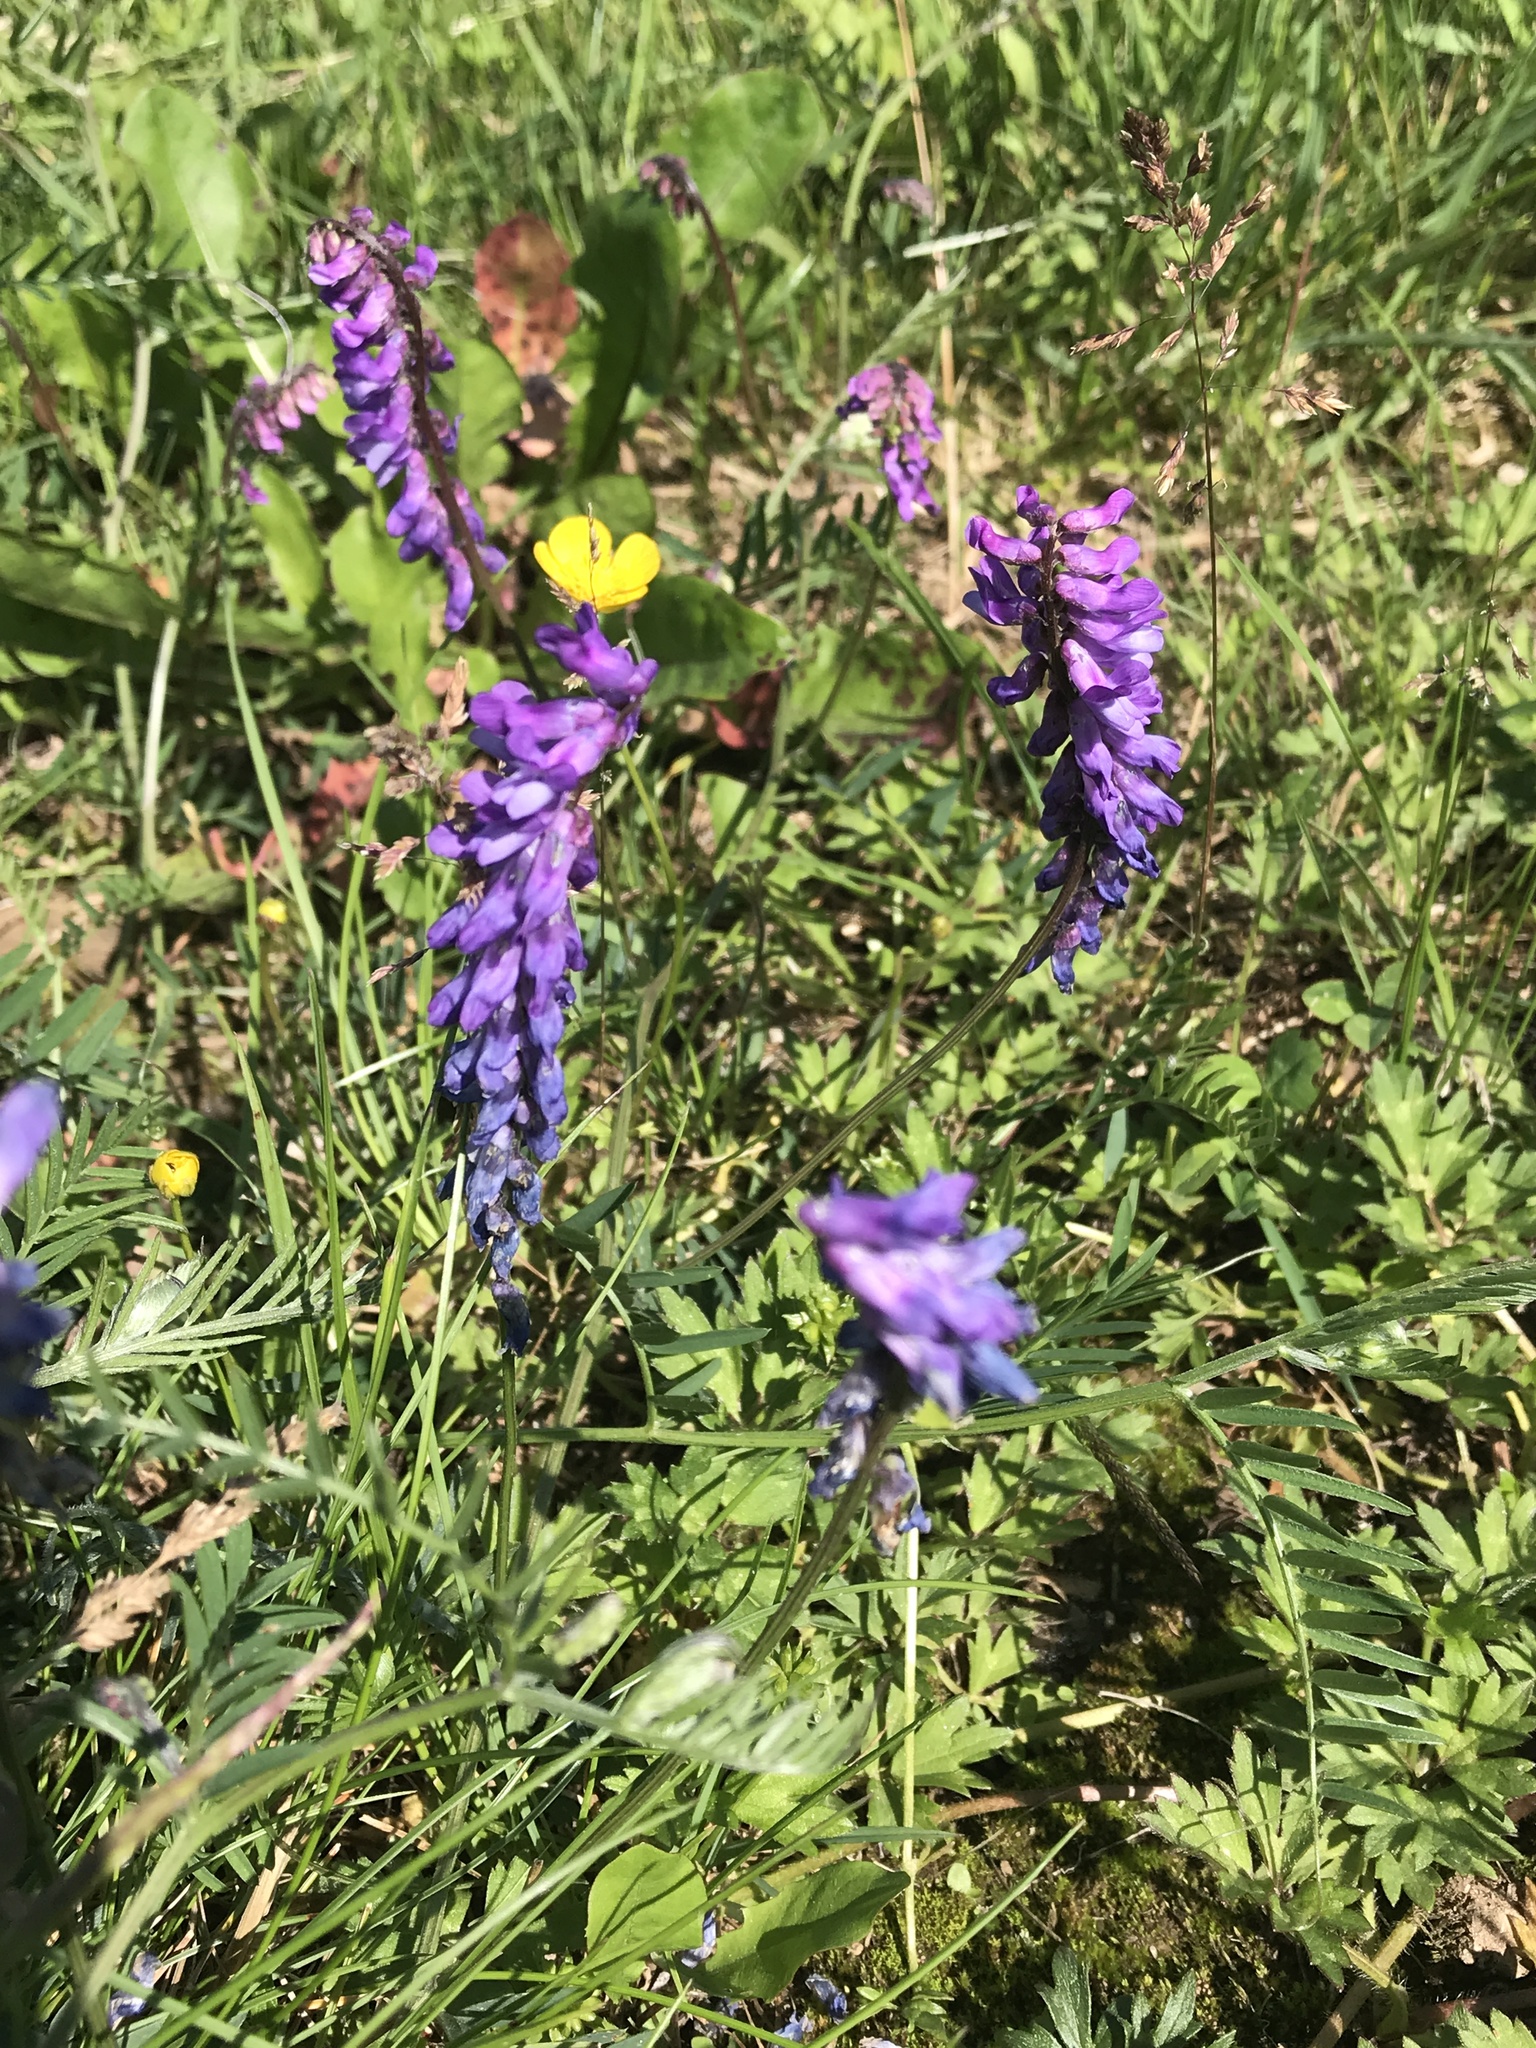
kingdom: Plantae
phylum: Tracheophyta
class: Magnoliopsida
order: Fabales
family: Fabaceae
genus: Vicia
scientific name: Vicia cracca
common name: Bird vetch
